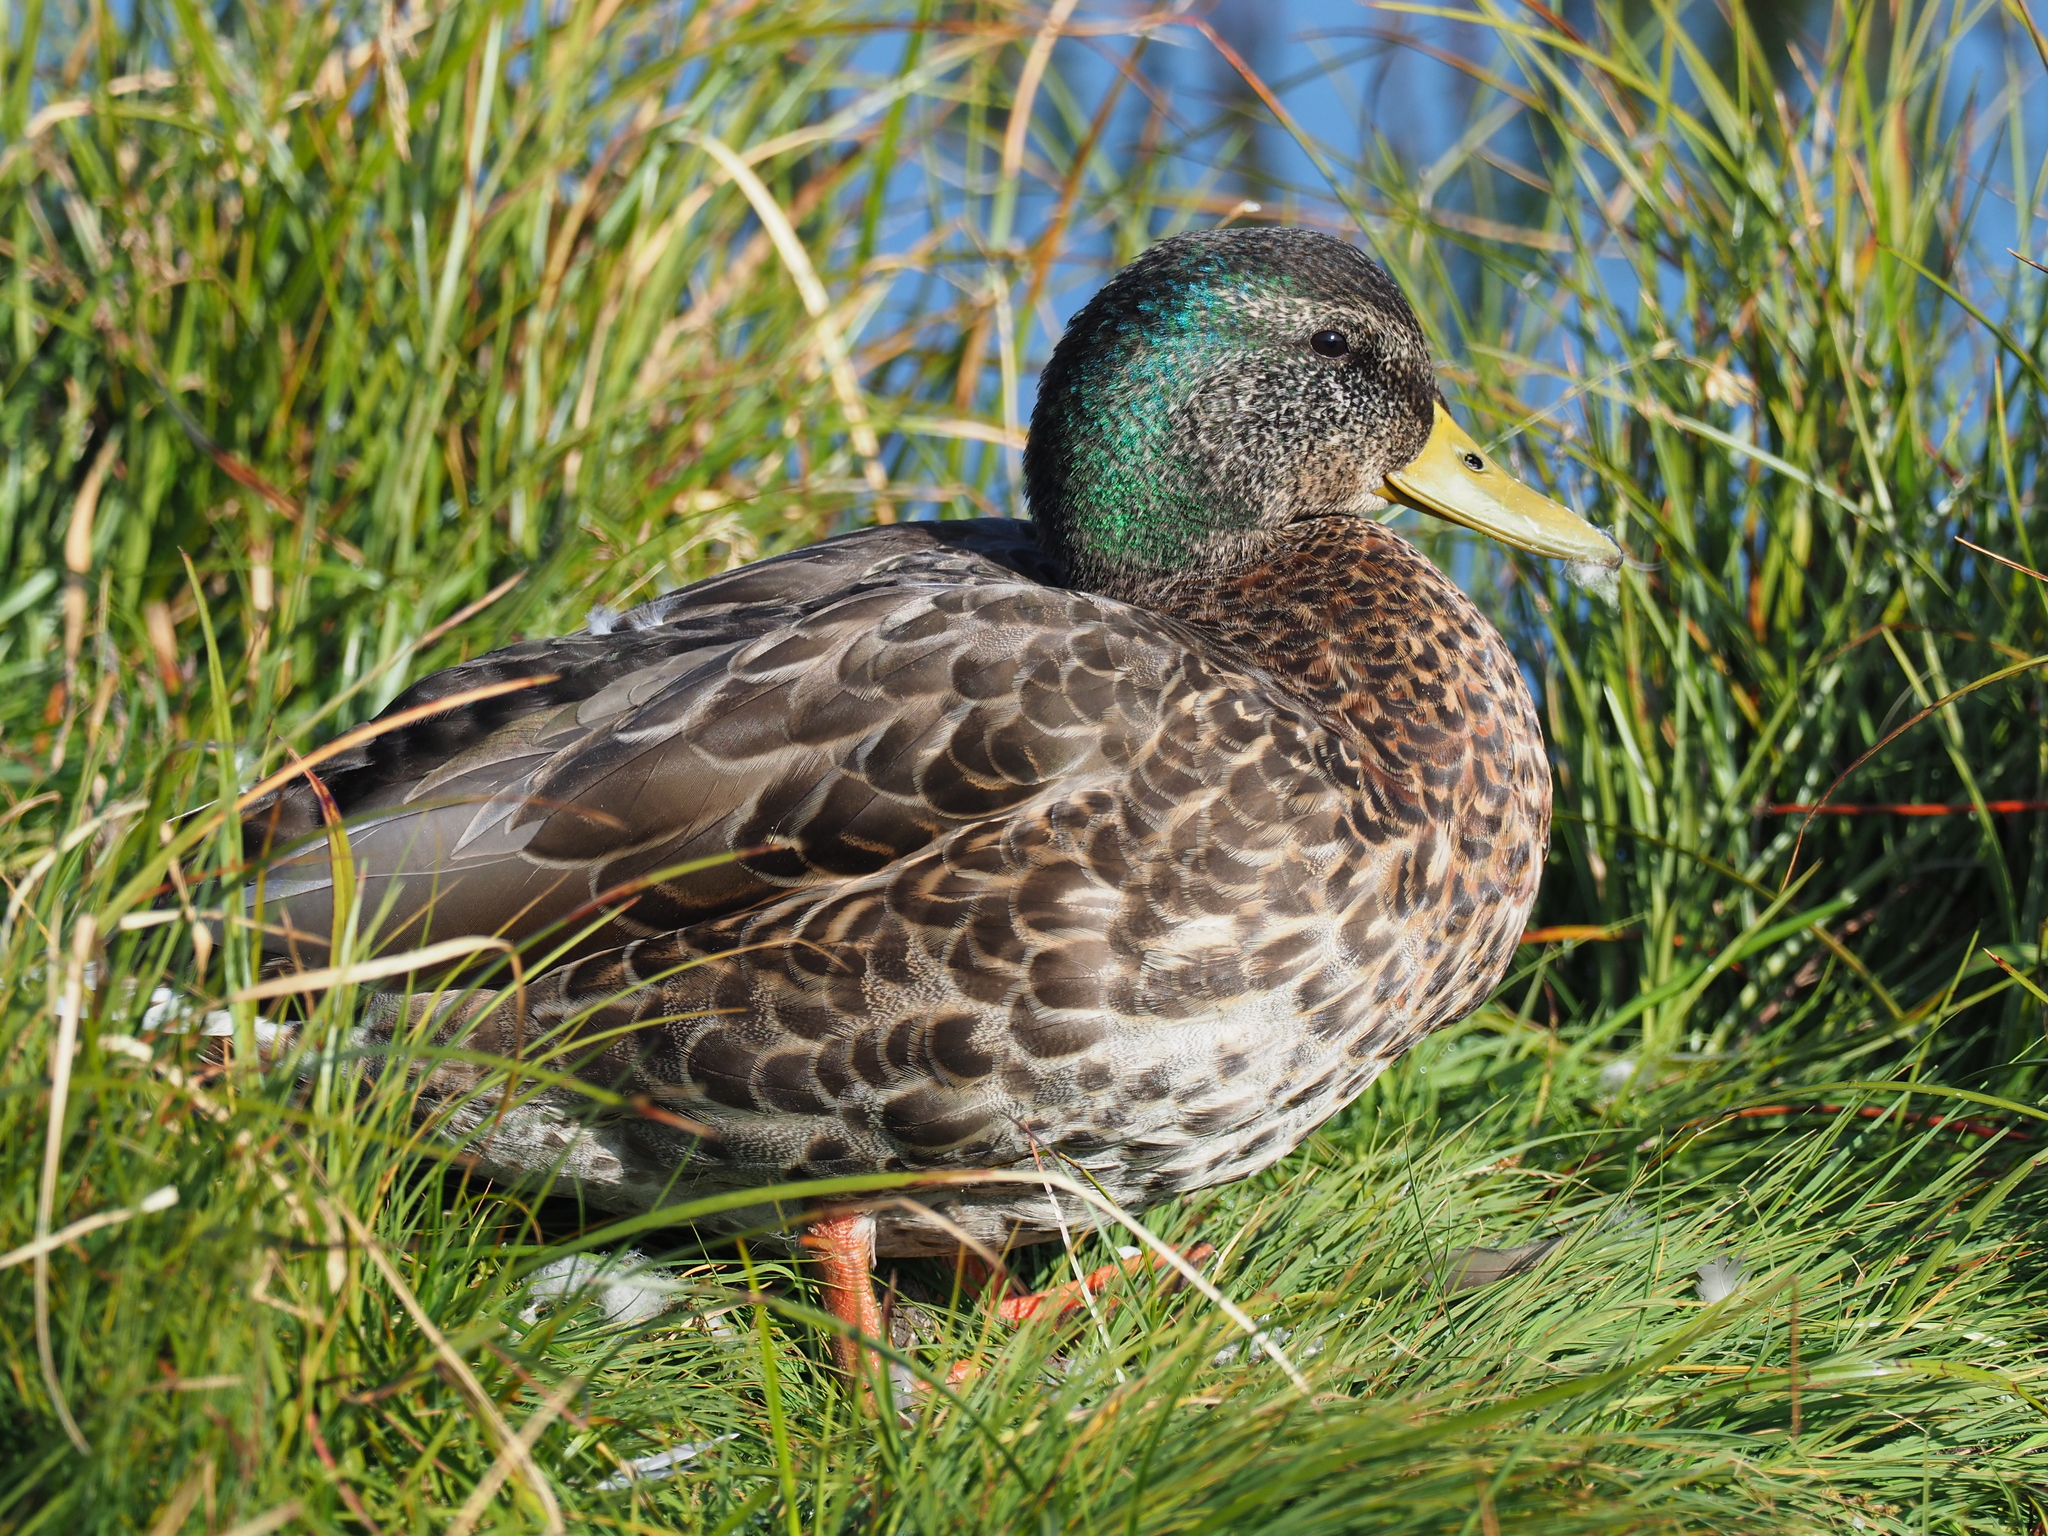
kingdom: Animalia
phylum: Chordata
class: Aves
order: Anseriformes
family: Anatidae
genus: Anas
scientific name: Anas platyrhynchos
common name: Mallard
